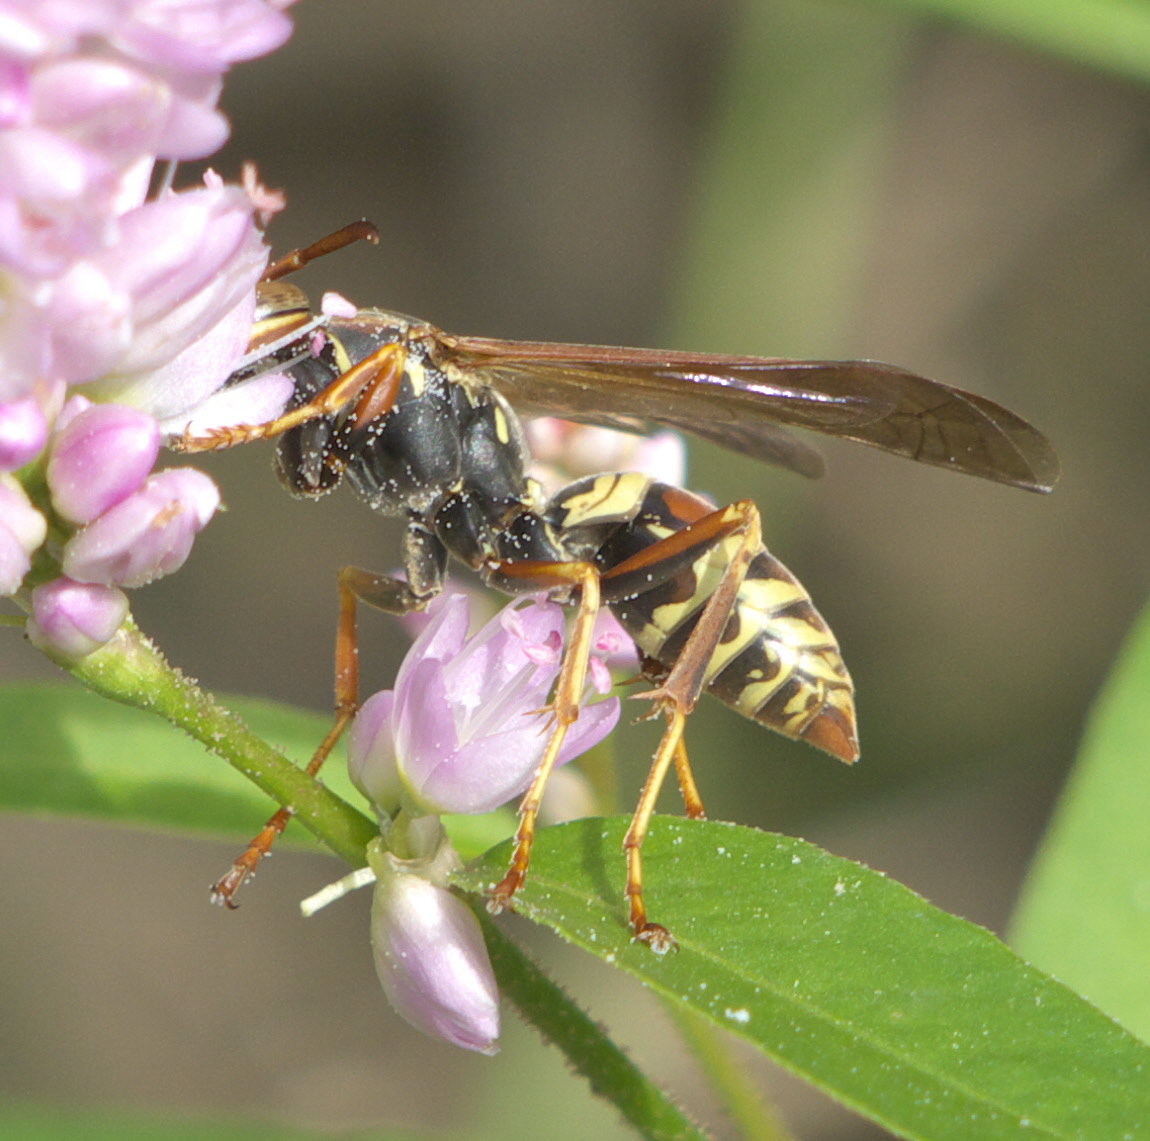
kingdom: Animalia
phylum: Arthropoda
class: Insecta
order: Hymenoptera
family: Eumenidae
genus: Polistes
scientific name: Polistes fuscatus
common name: Dark paper wasp
